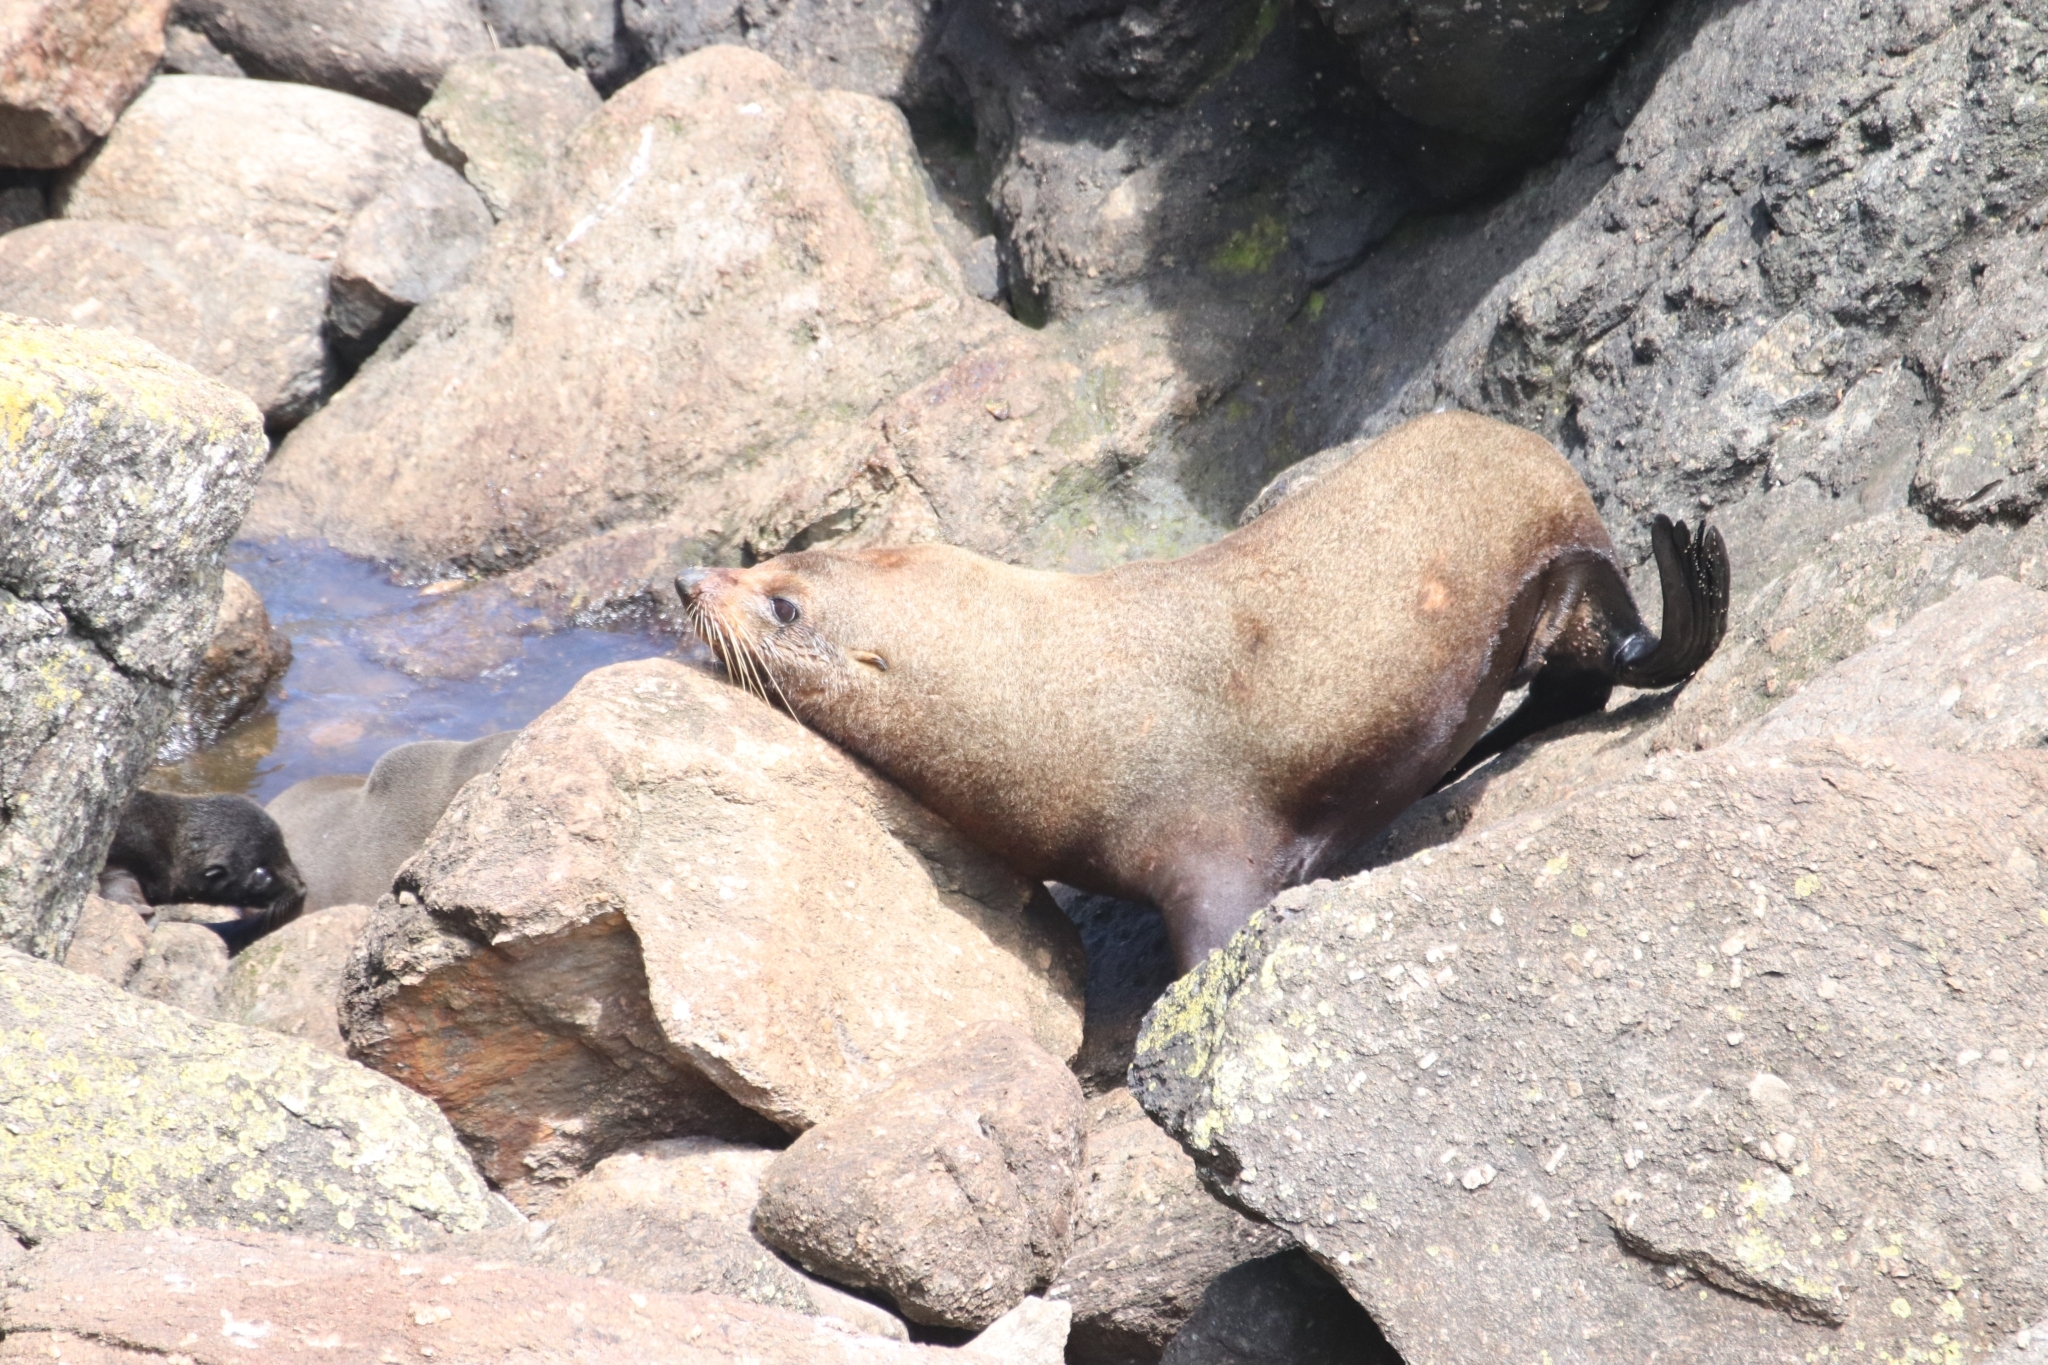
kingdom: Animalia
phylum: Chordata
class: Mammalia
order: Carnivora
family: Otariidae
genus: Arctocephalus
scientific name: Arctocephalus forsteri
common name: New zealand fur seal
